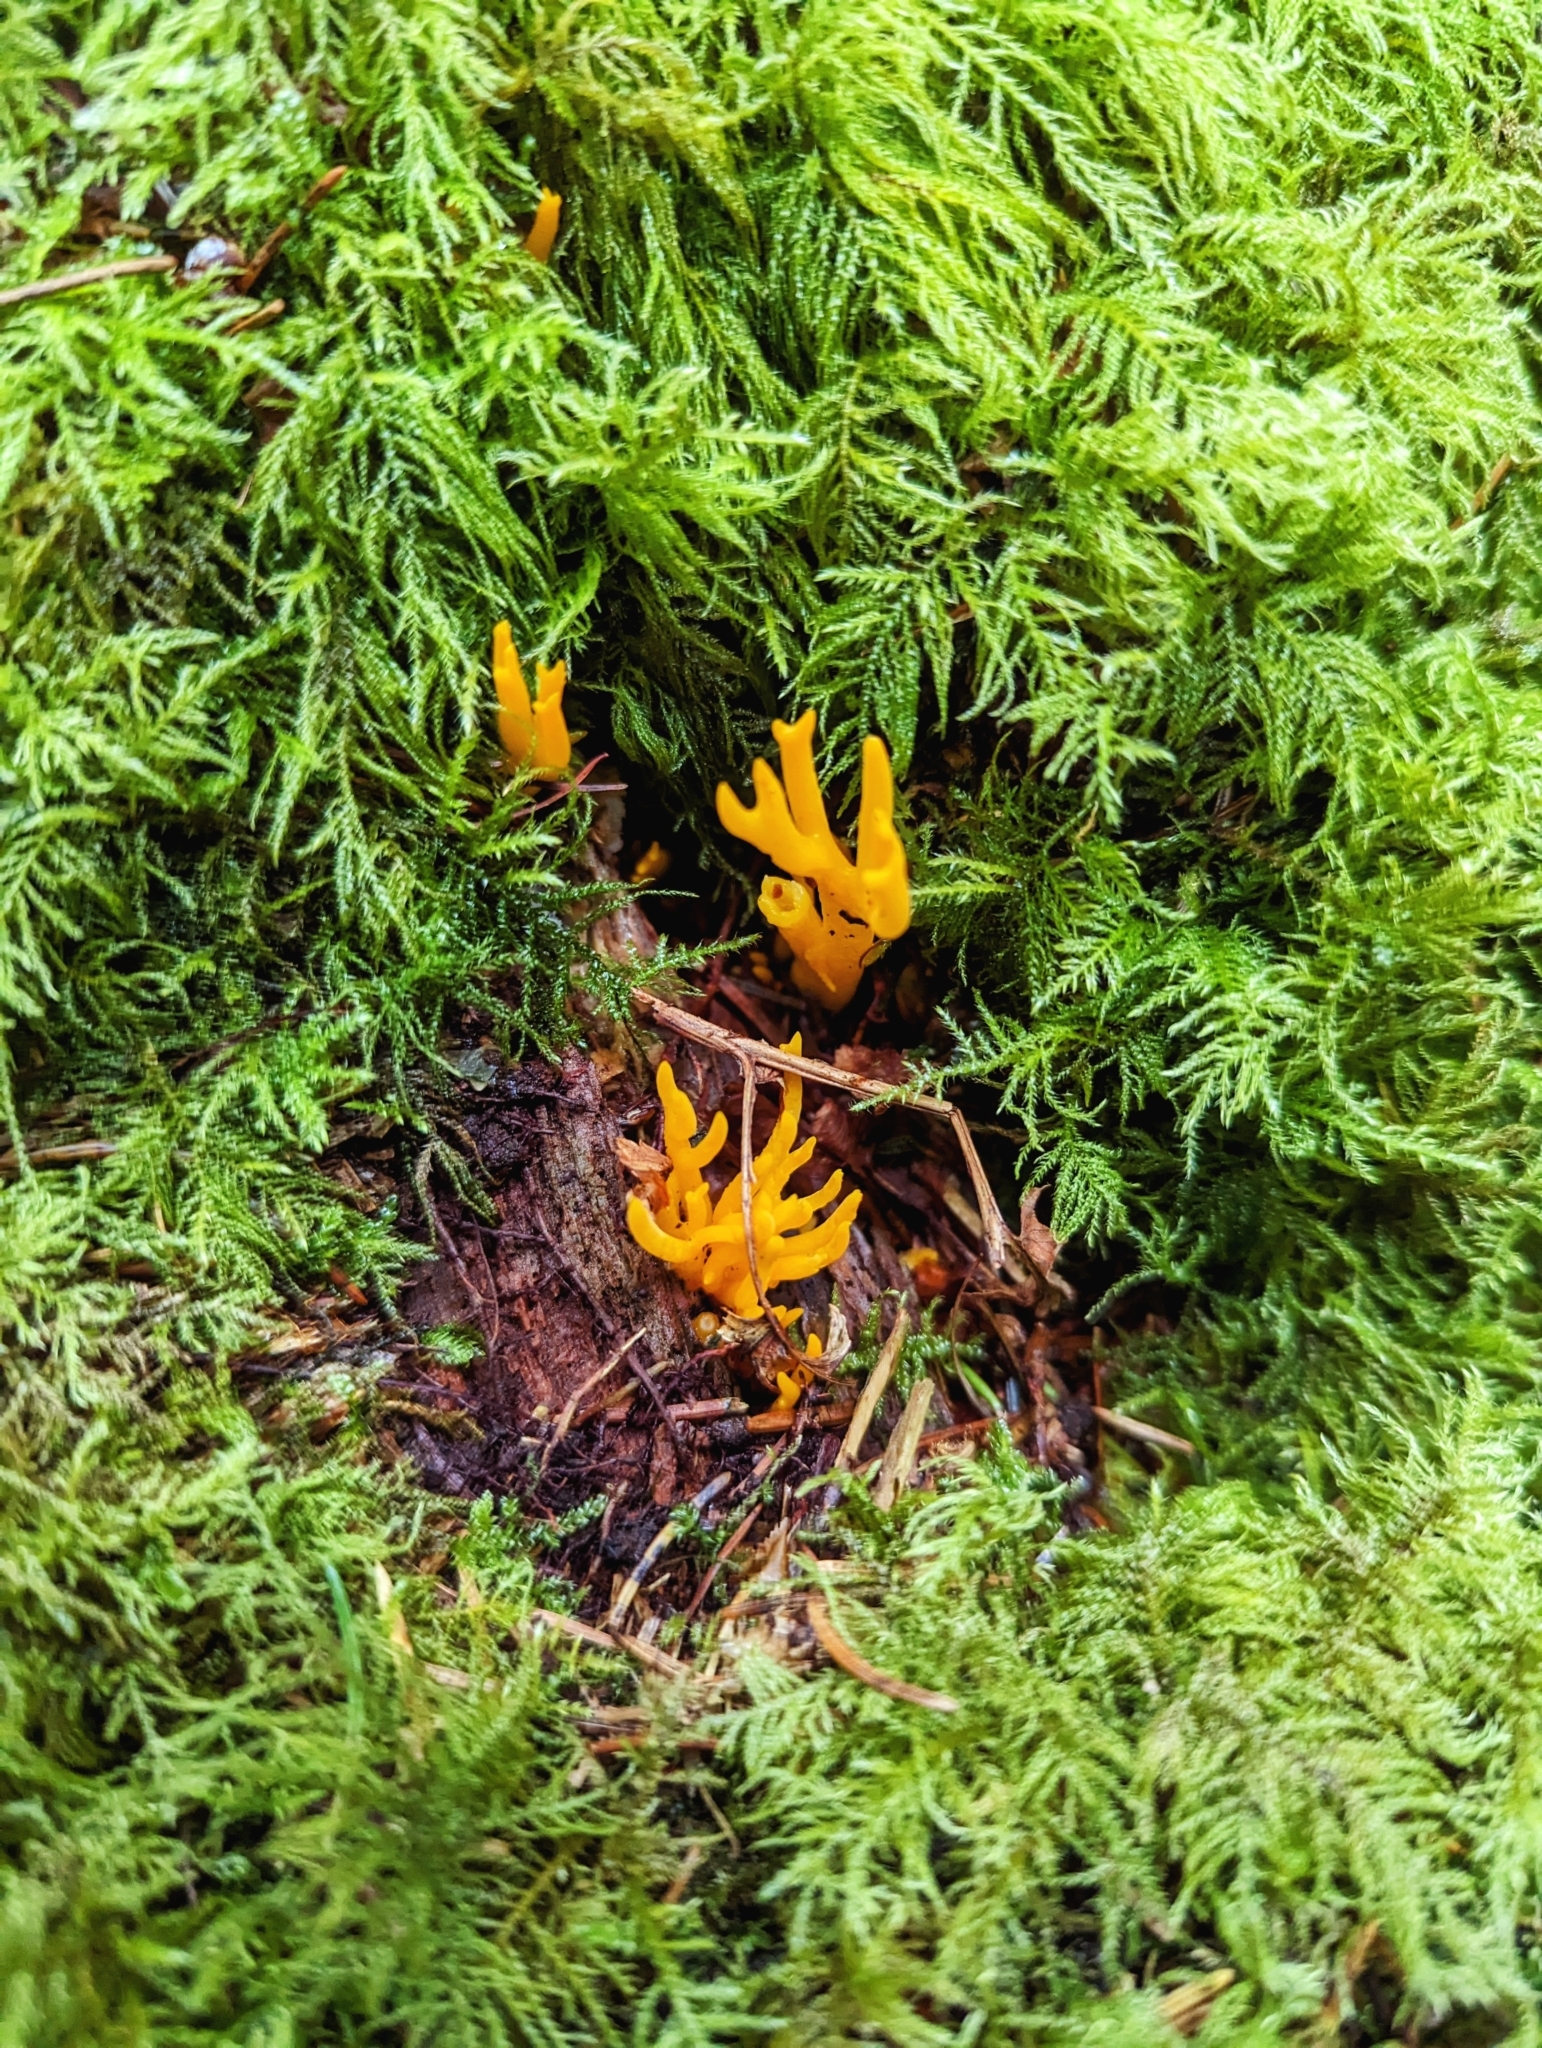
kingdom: Fungi
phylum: Basidiomycota
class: Dacrymycetes
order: Dacrymycetales
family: Dacrymycetaceae
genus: Calocera
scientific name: Calocera viscosa
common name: Yellow stagshorn
